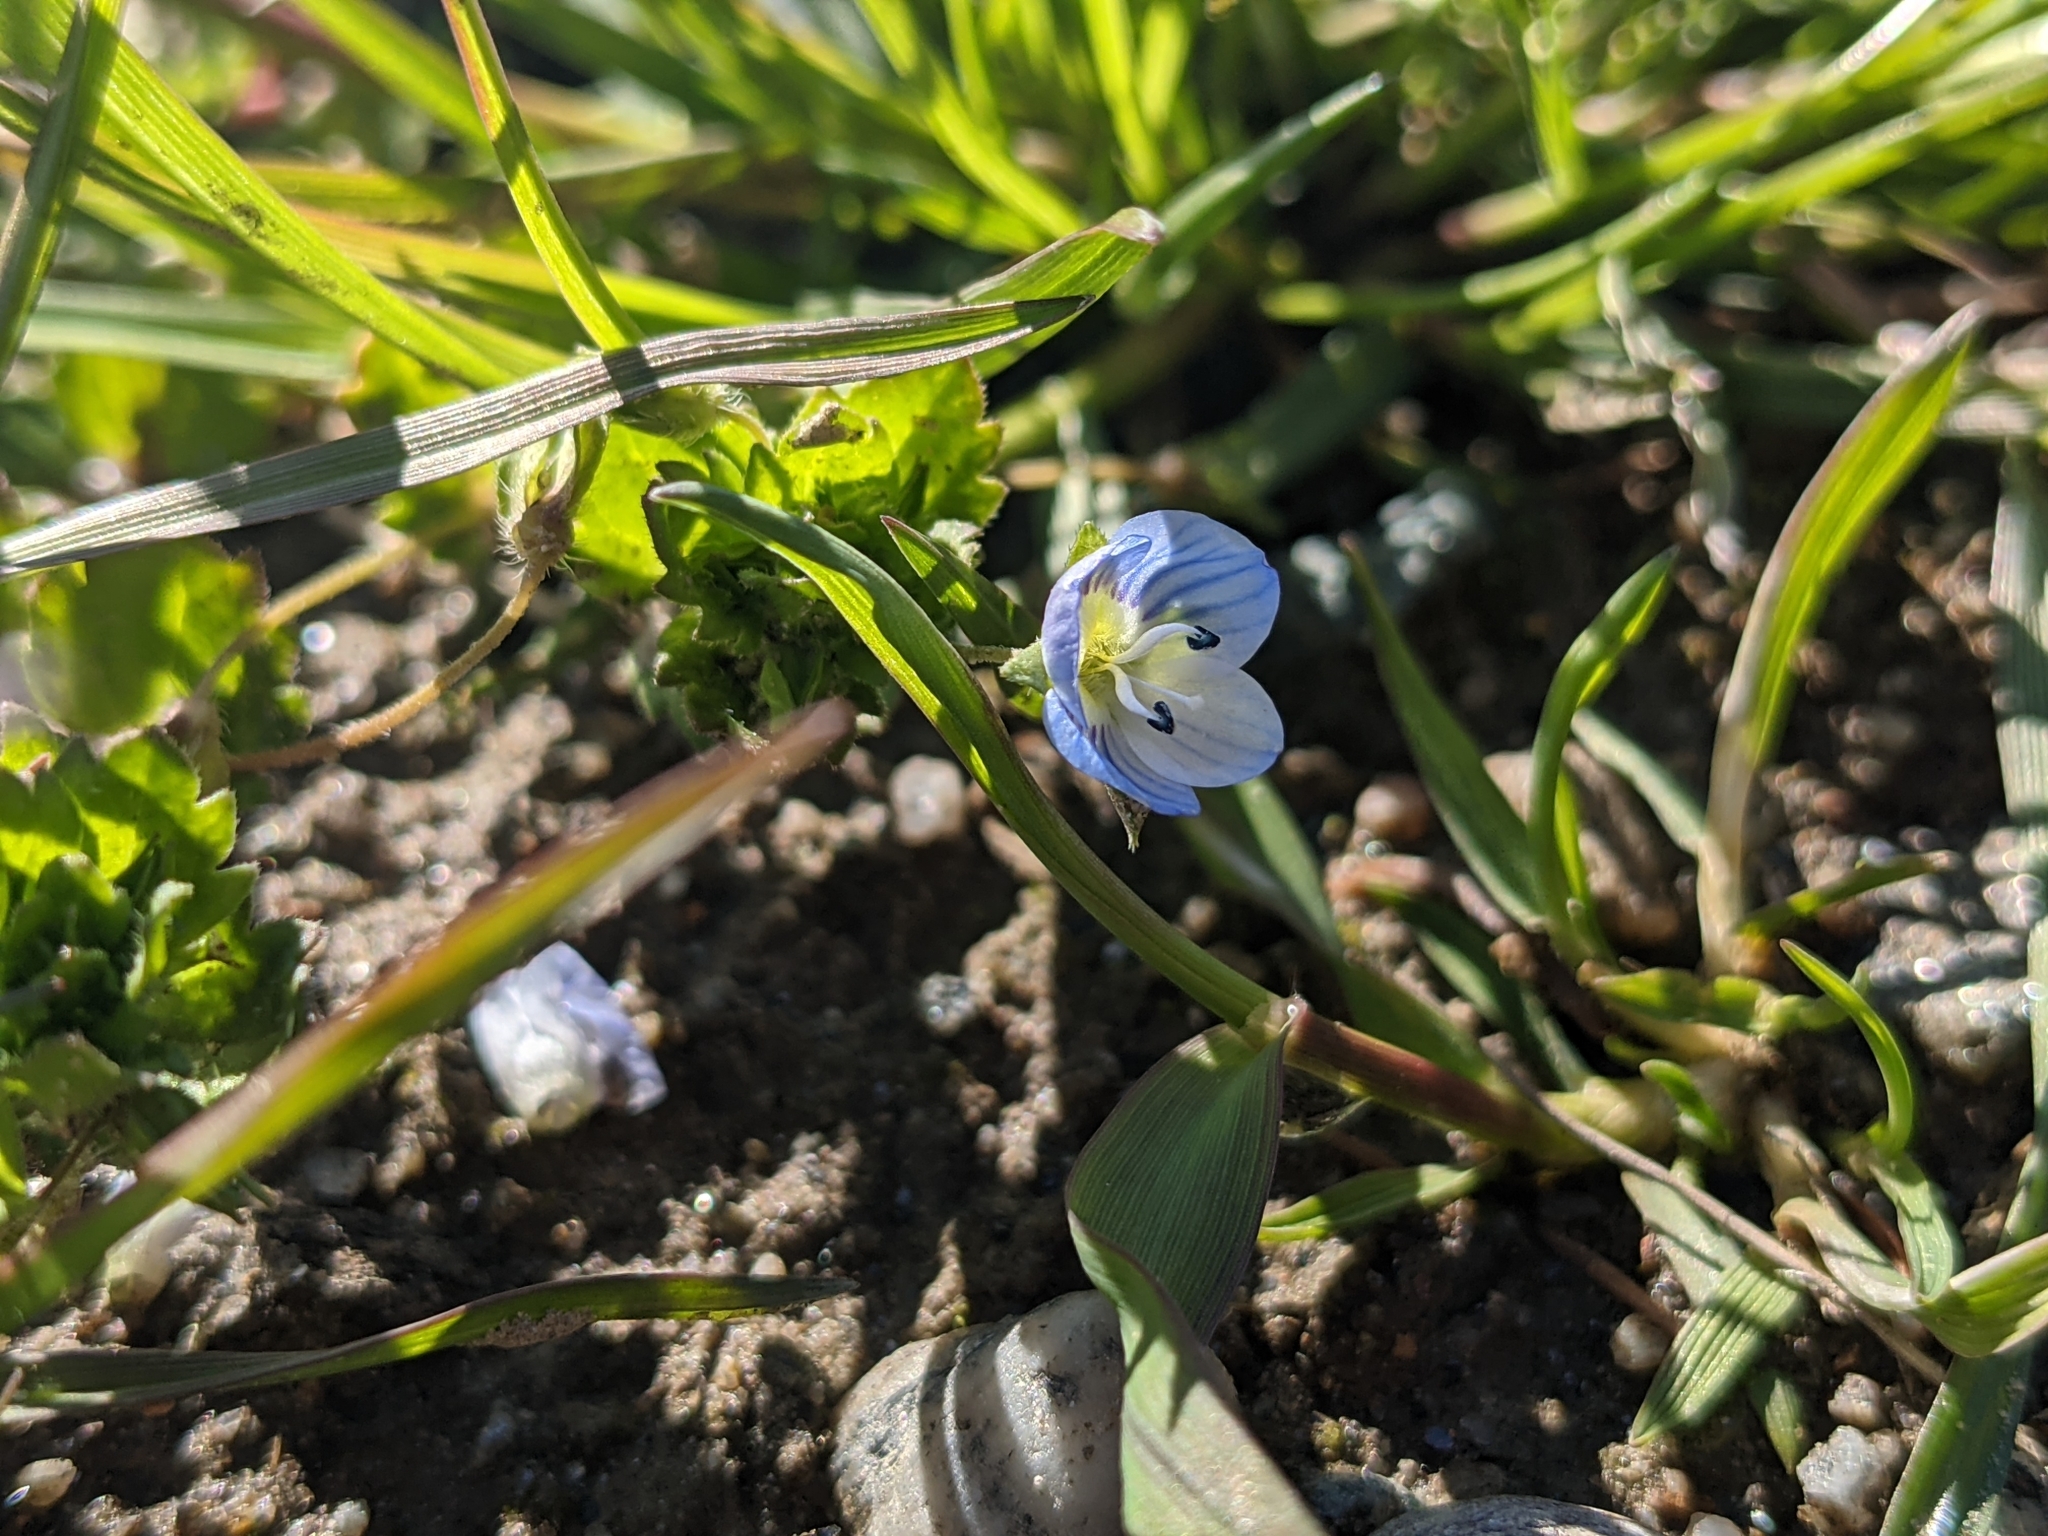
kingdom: Plantae
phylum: Tracheophyta
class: Magnoliopsida
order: Lamiales
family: Plantaginaceae
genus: Veronica
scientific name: Veronica persica
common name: Common field-speedwell
